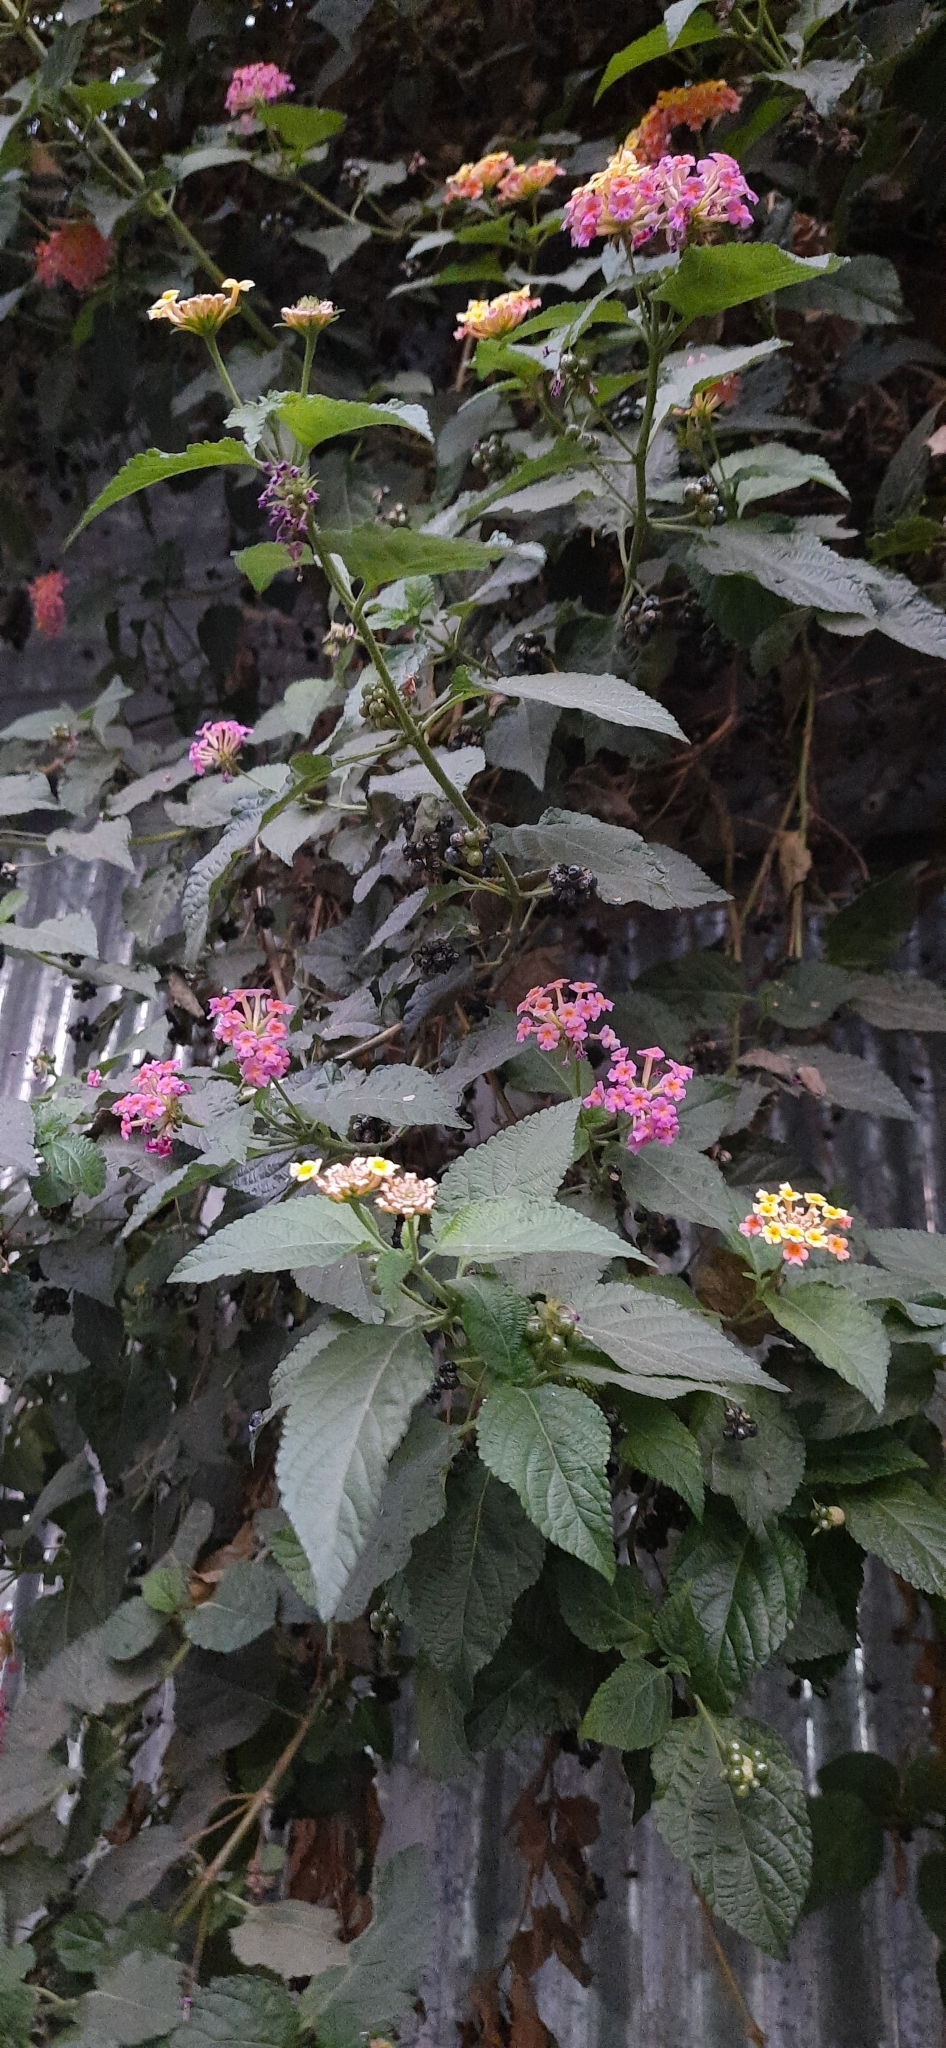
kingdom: Plantae
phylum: Tracheophyta
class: Magnoliopsida
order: Lamiales
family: Verbenaceae
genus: Lantana
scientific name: Lantana camara
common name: Lantana
